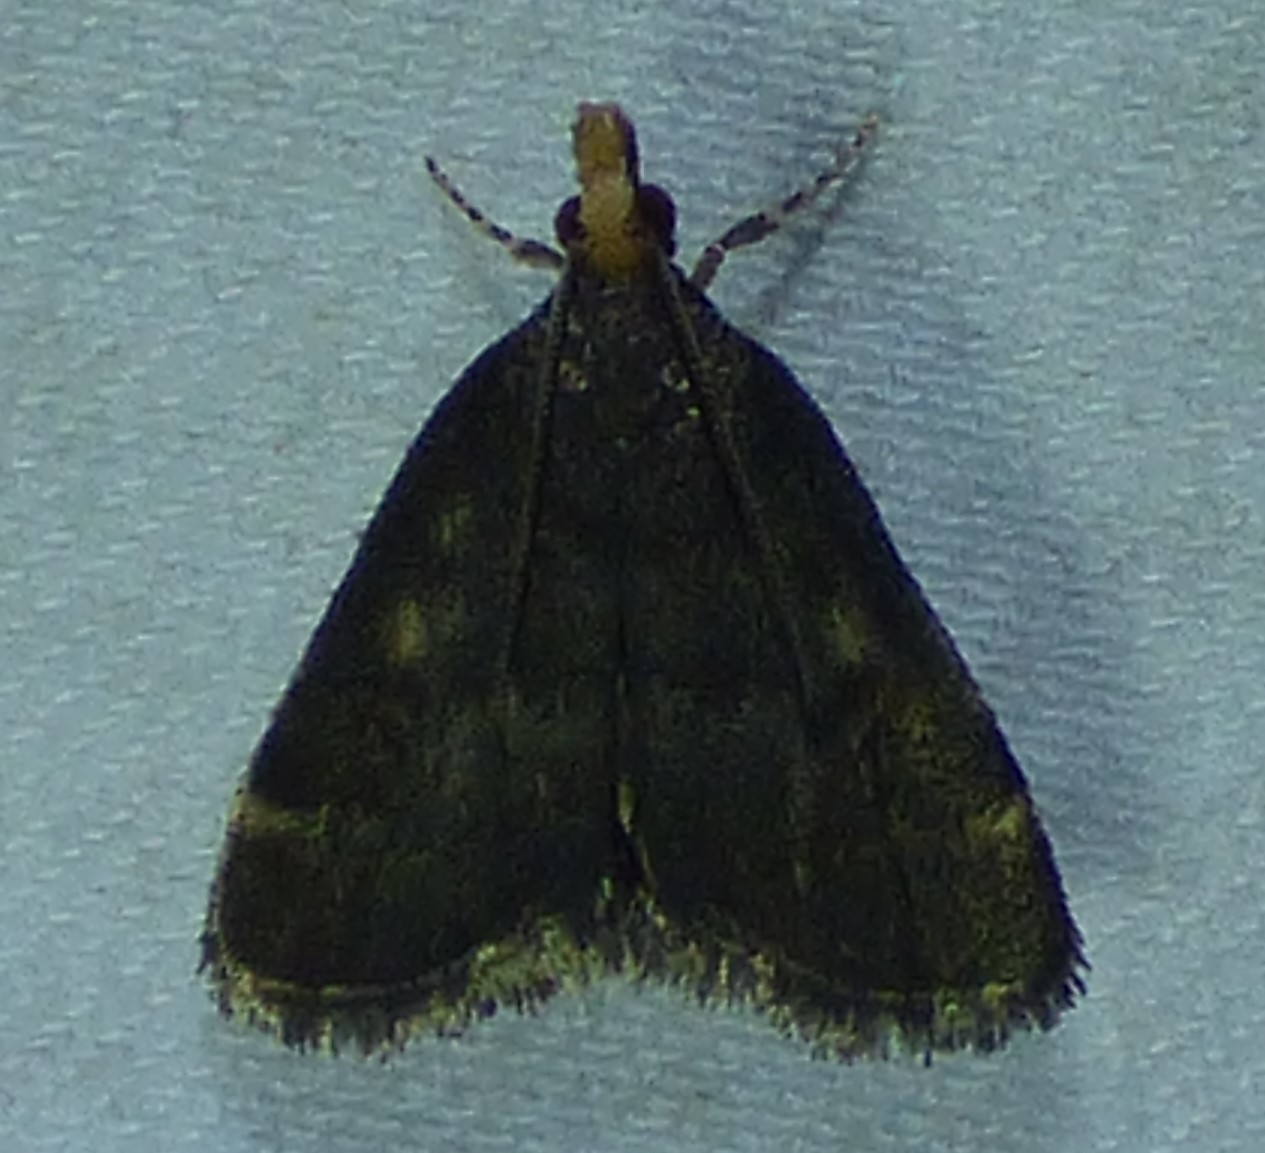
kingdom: Animalia
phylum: Arthropoda
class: Insecta
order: Lepidoptera
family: Crambidae
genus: Pyrausta
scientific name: Pyrausta merrickalis
